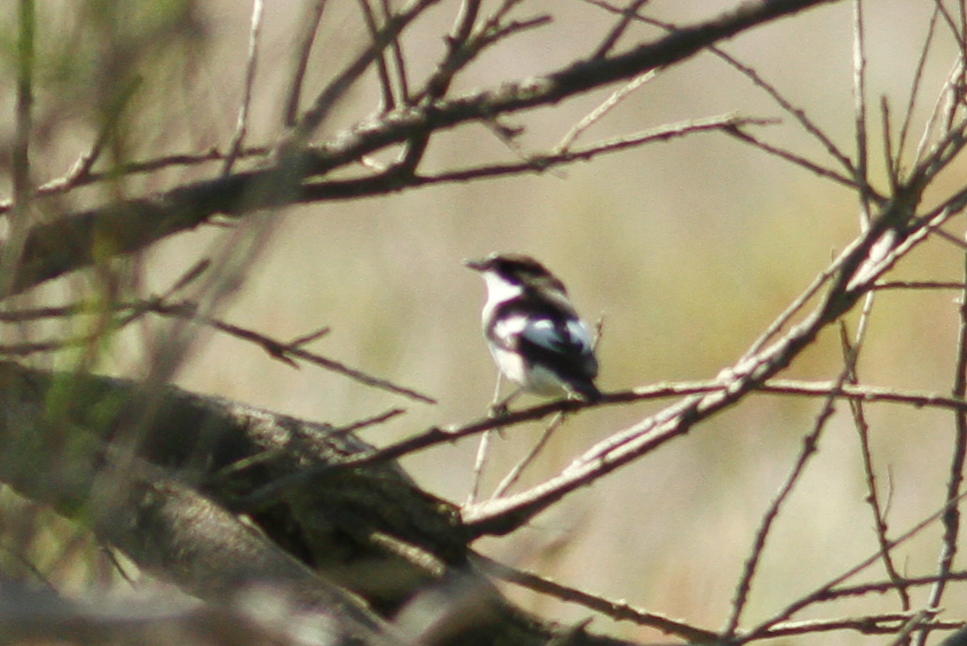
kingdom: Animalia
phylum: Chordata
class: Aves
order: Passeriformes
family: Muscicapidae
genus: Ficedula
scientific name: Ficedula hypoleuca
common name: European pied flycatcher
